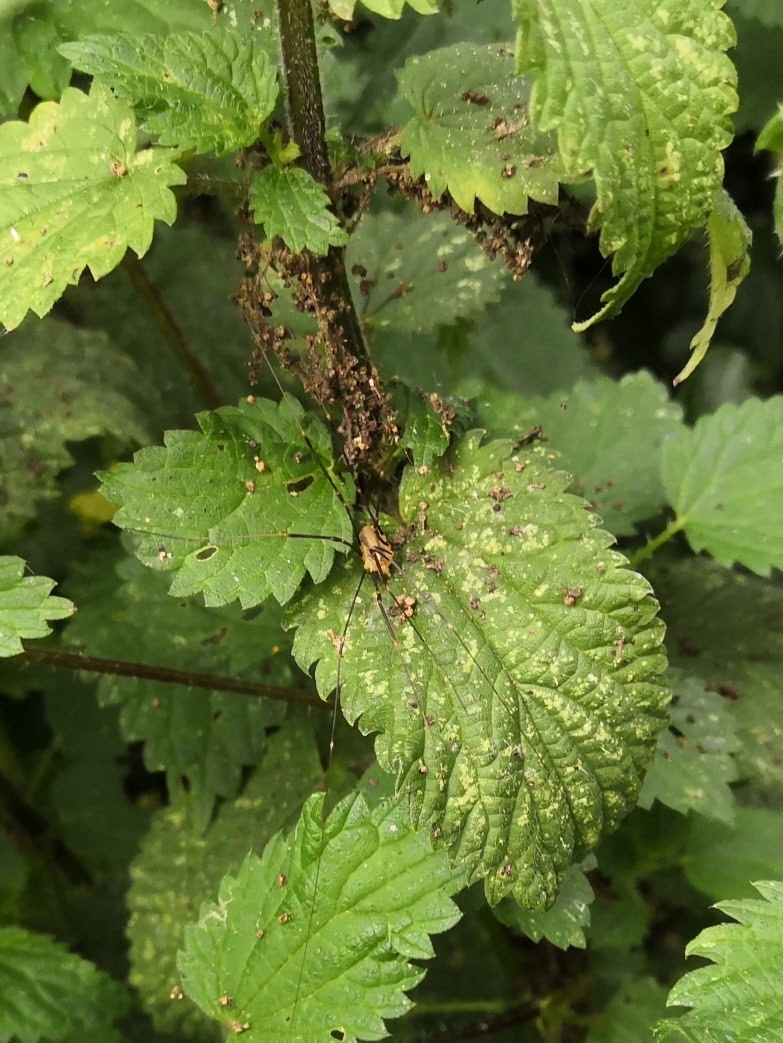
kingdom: Animalia
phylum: Arthropoda
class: Arachnida
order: Opiliones
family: Phalangiidae
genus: Opilio
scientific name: Opilio canestrinii
